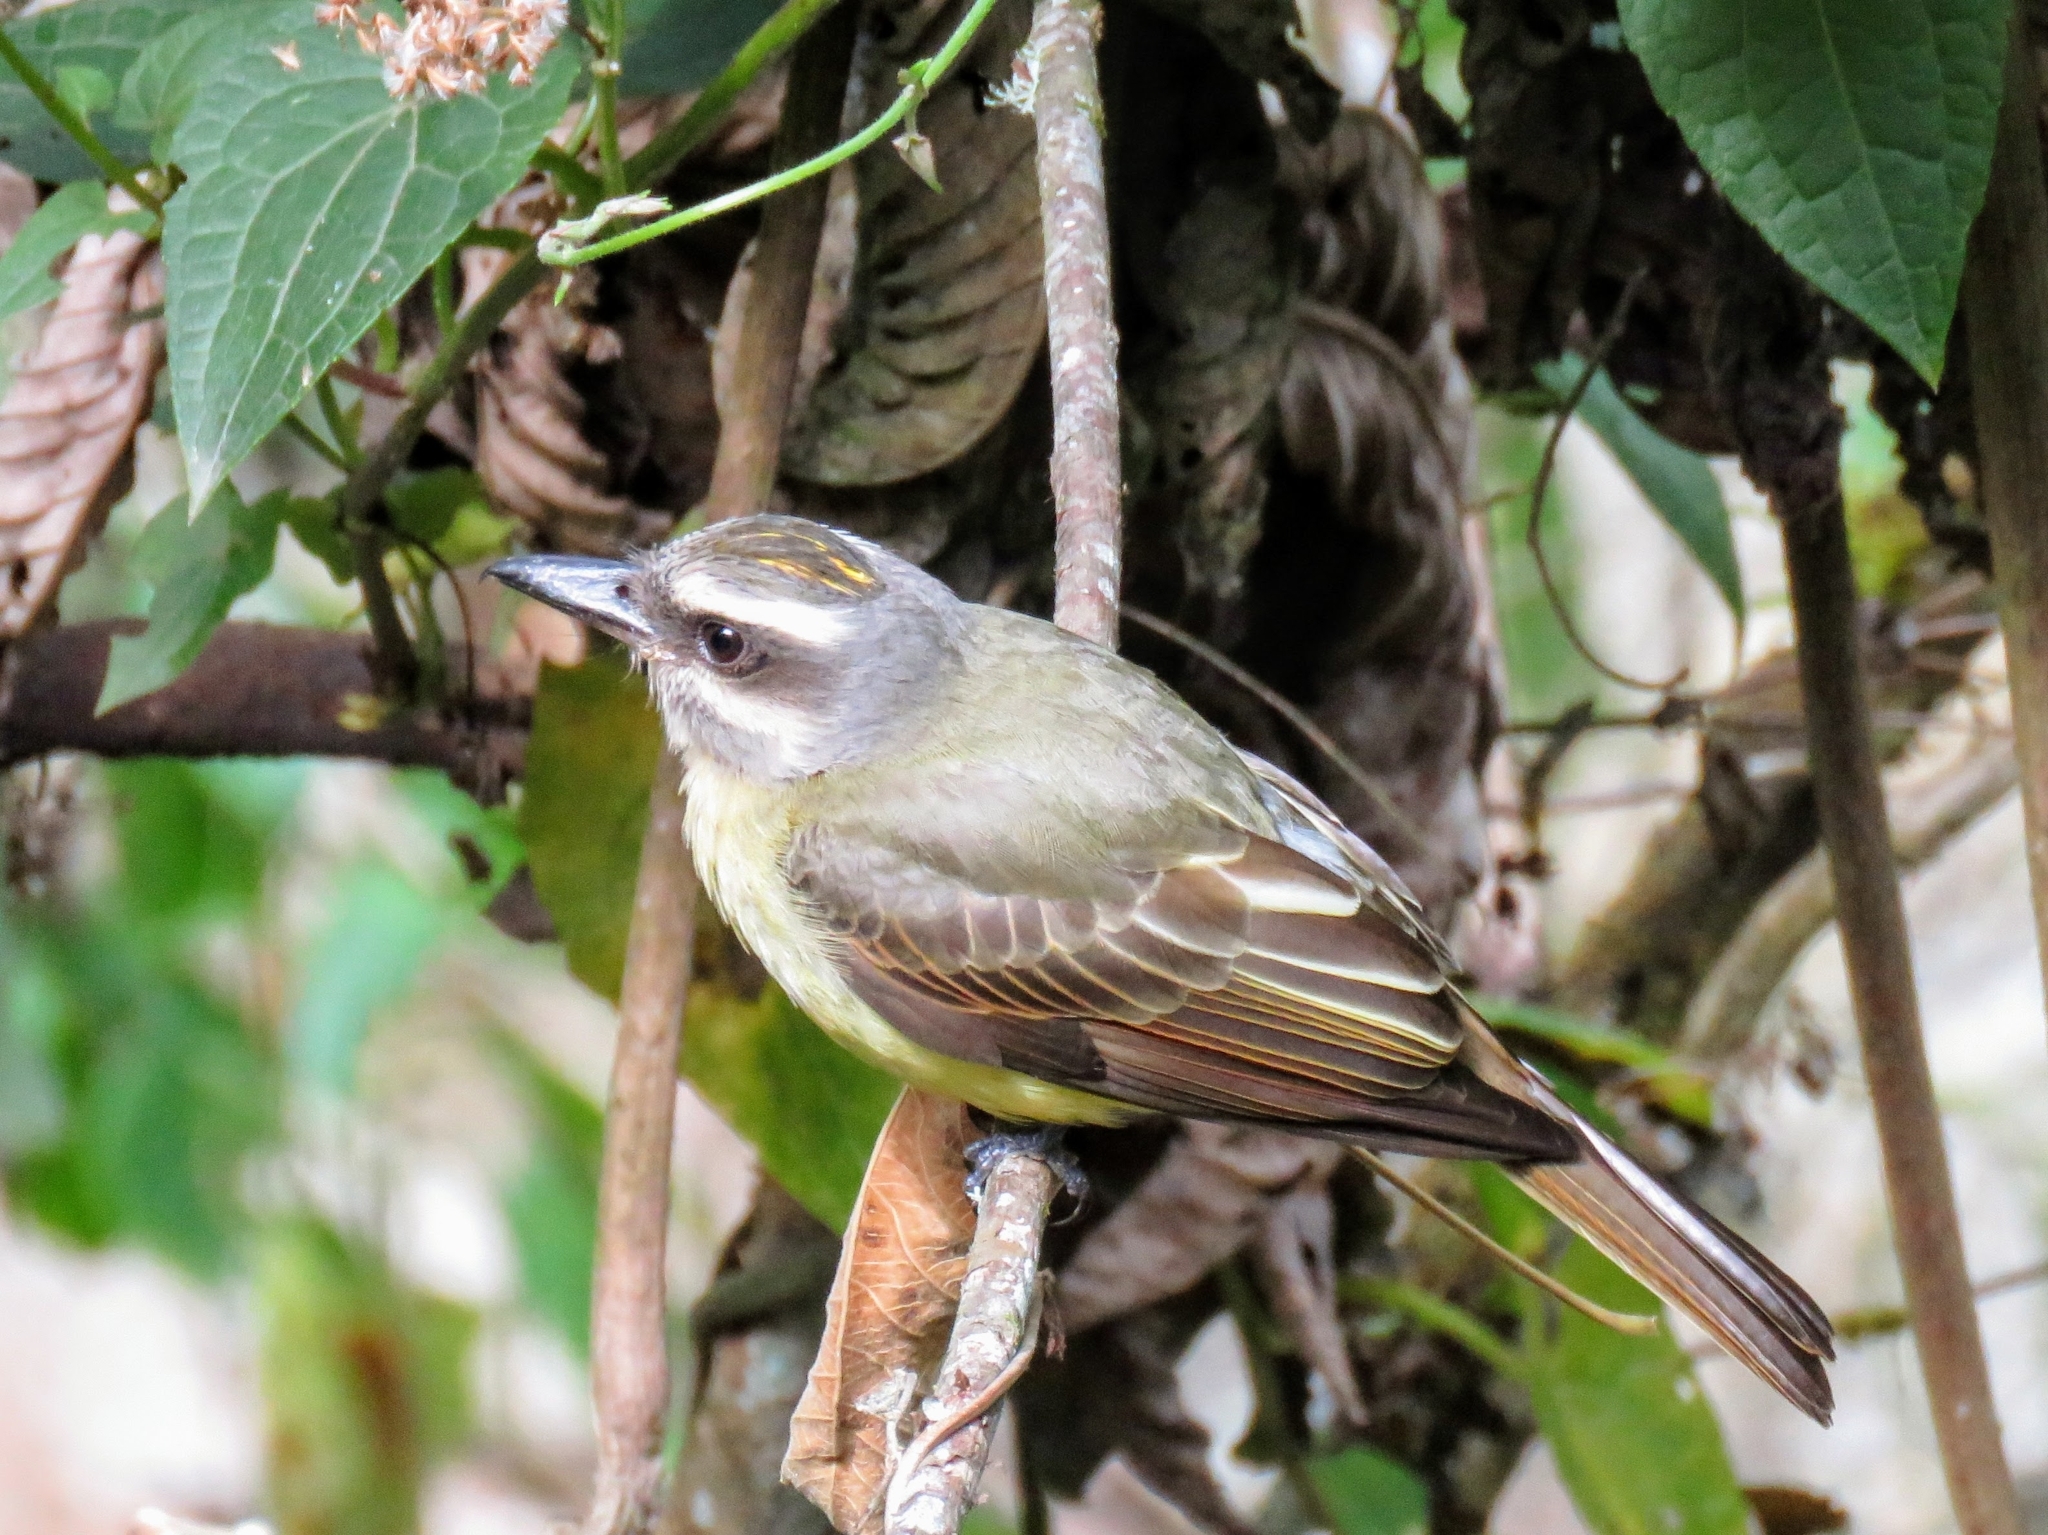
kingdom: Animalia
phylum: Chordata
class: Aves
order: Passeriformes
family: Tyrannidae
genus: Myiodynastes
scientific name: Myiodynastes chrysocephalus
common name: Golden-crowned flycatcher
